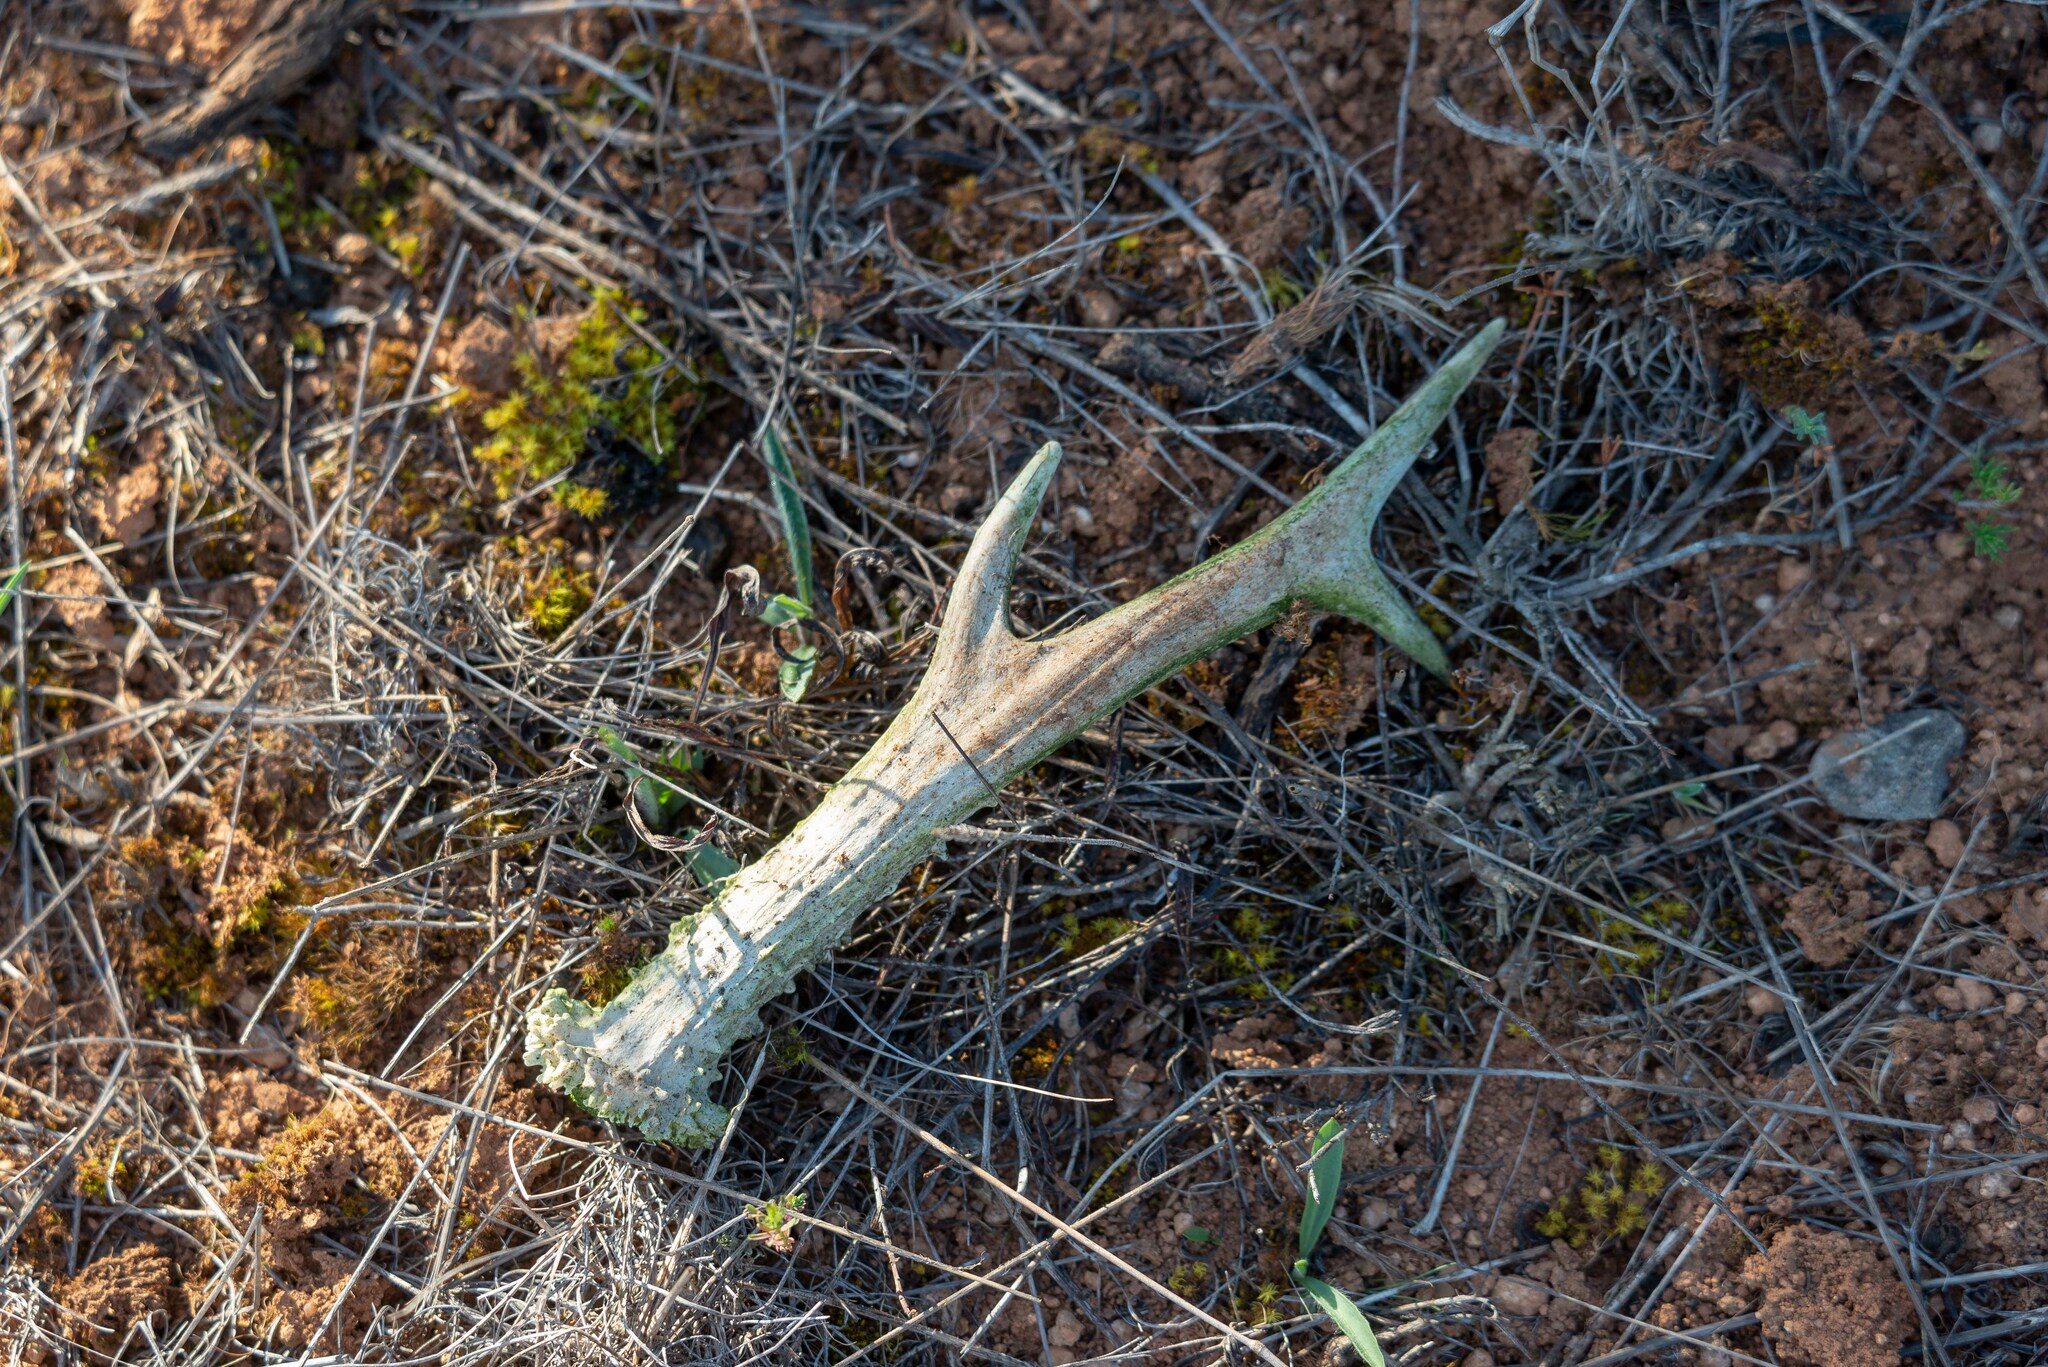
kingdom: Animalia
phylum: Chordata
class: Mammalia
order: Artiodactyla
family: Cervidae
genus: Capreolus
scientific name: Capreolus capreolus
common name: Western roe deer
